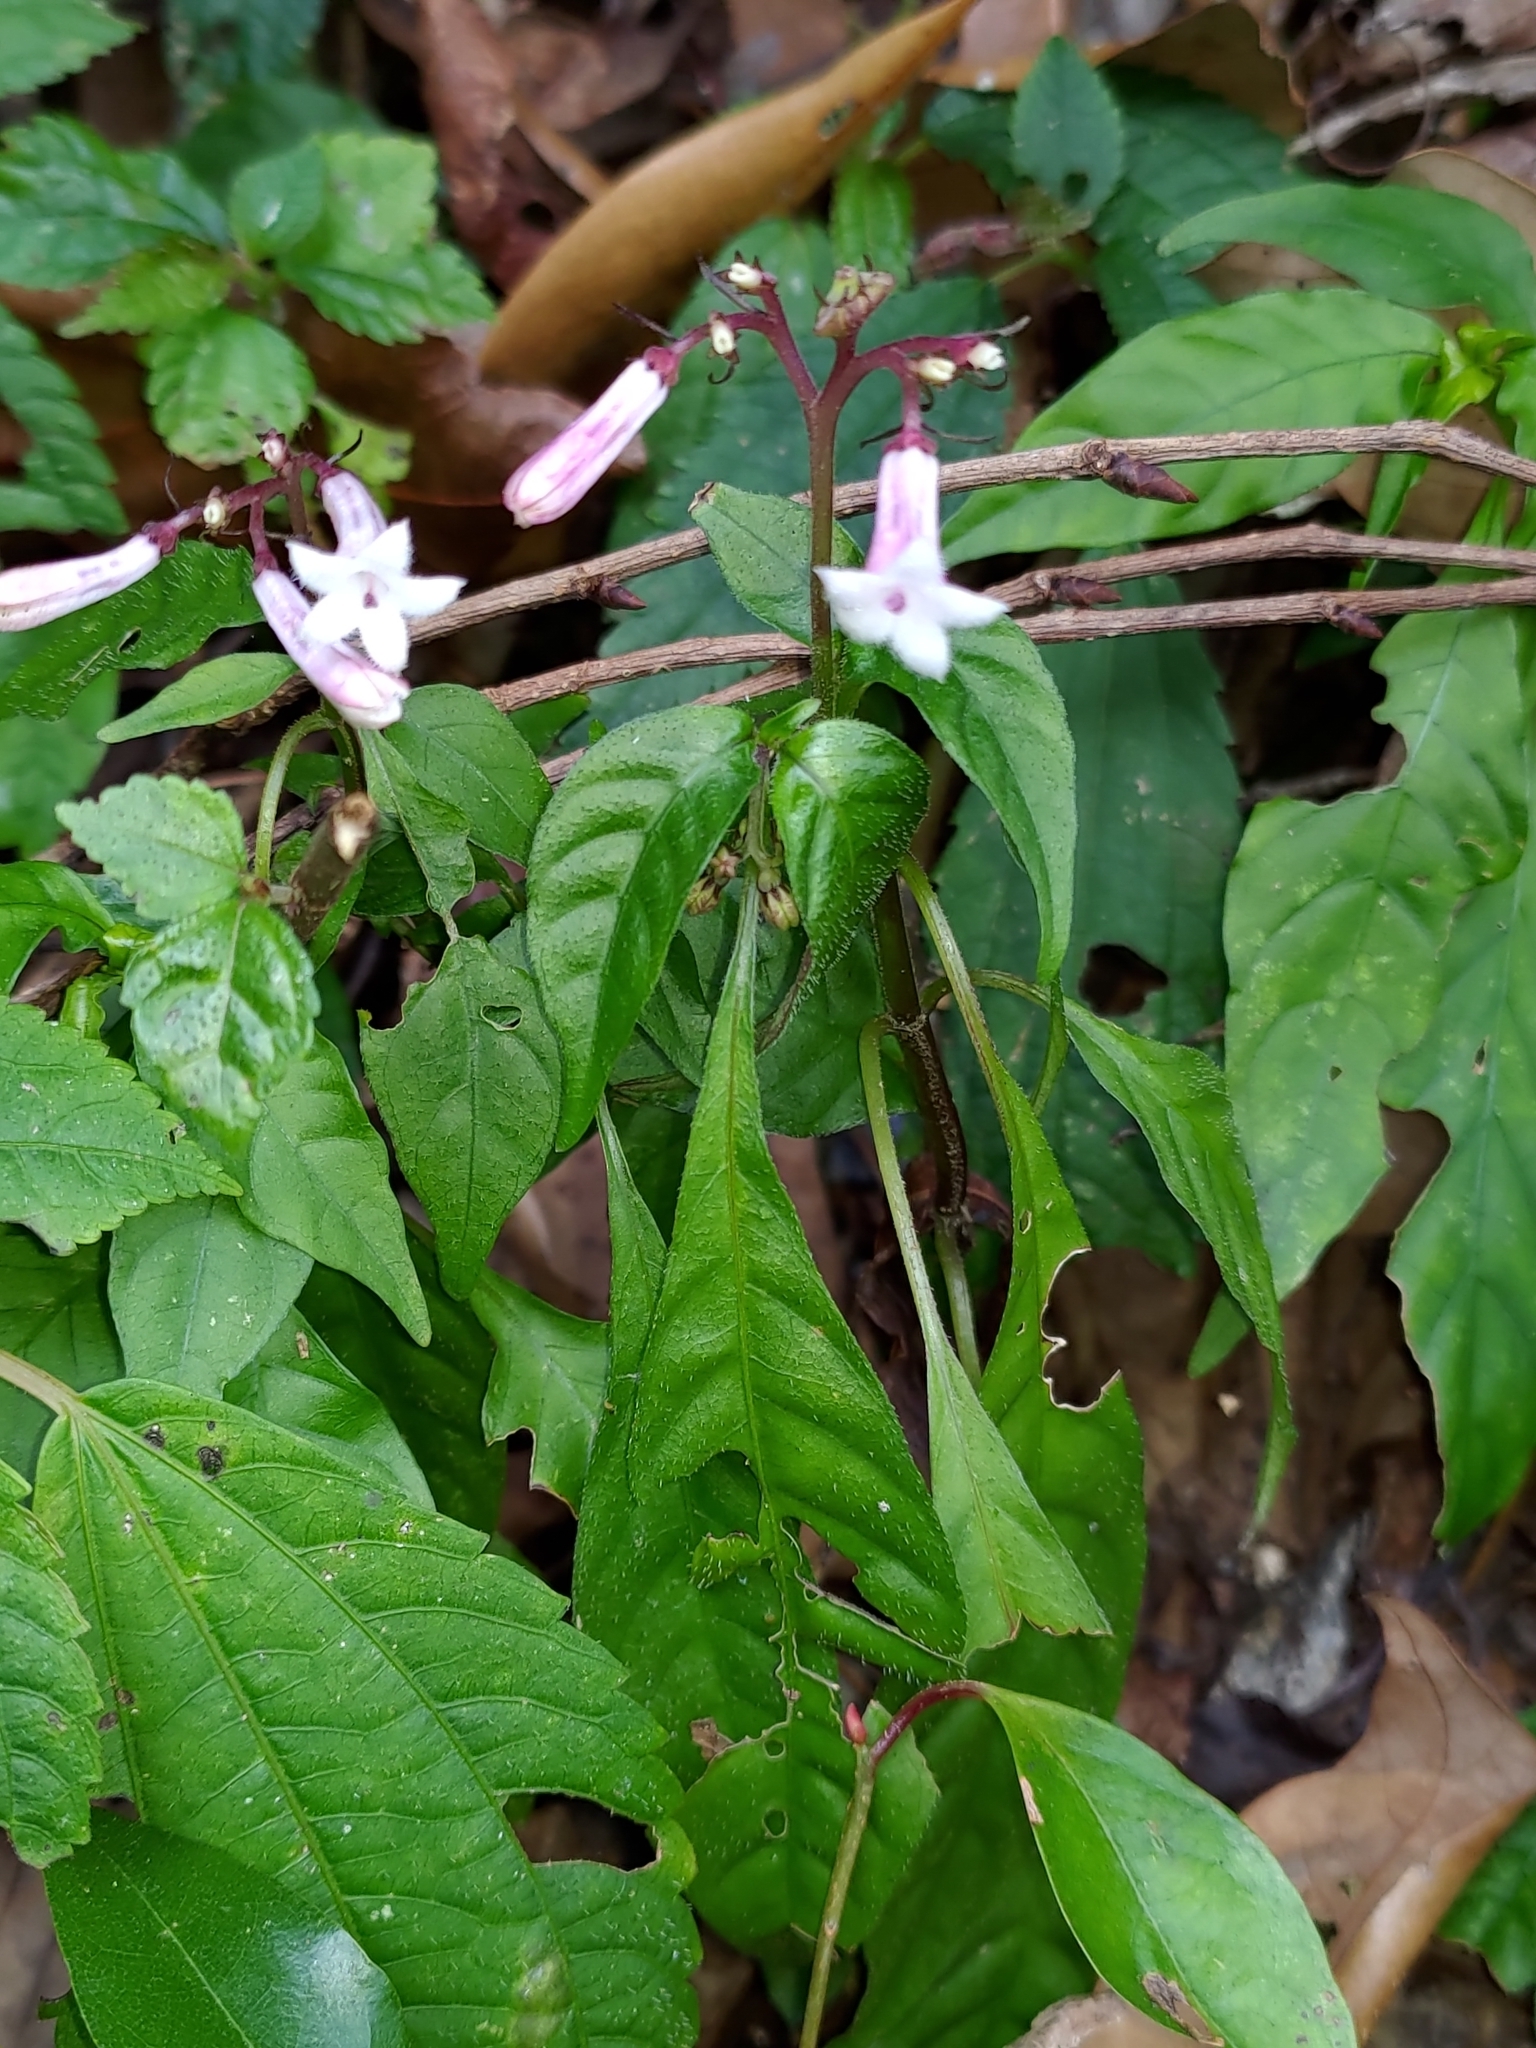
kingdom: Plantae
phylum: Tracheophyta
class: Magnoliopsida
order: Gentianales
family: Rubiaceae
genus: Ophiorrhiza
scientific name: Ophiorrhiza japonica
